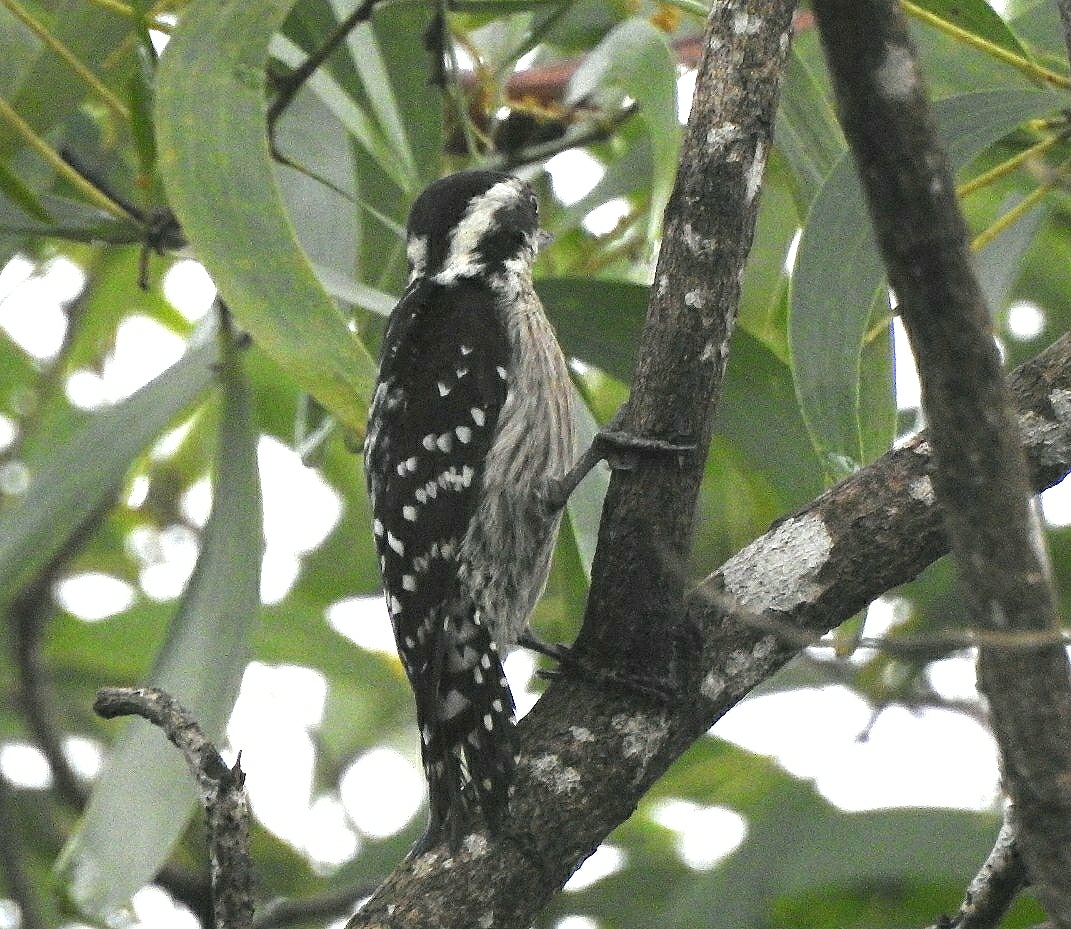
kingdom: Animalia
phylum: Chordata
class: Aves
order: Piciformes
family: Picidae
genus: Yungipicus
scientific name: Yungipicus nanus
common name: Brown-capped pygmy woodpecker
